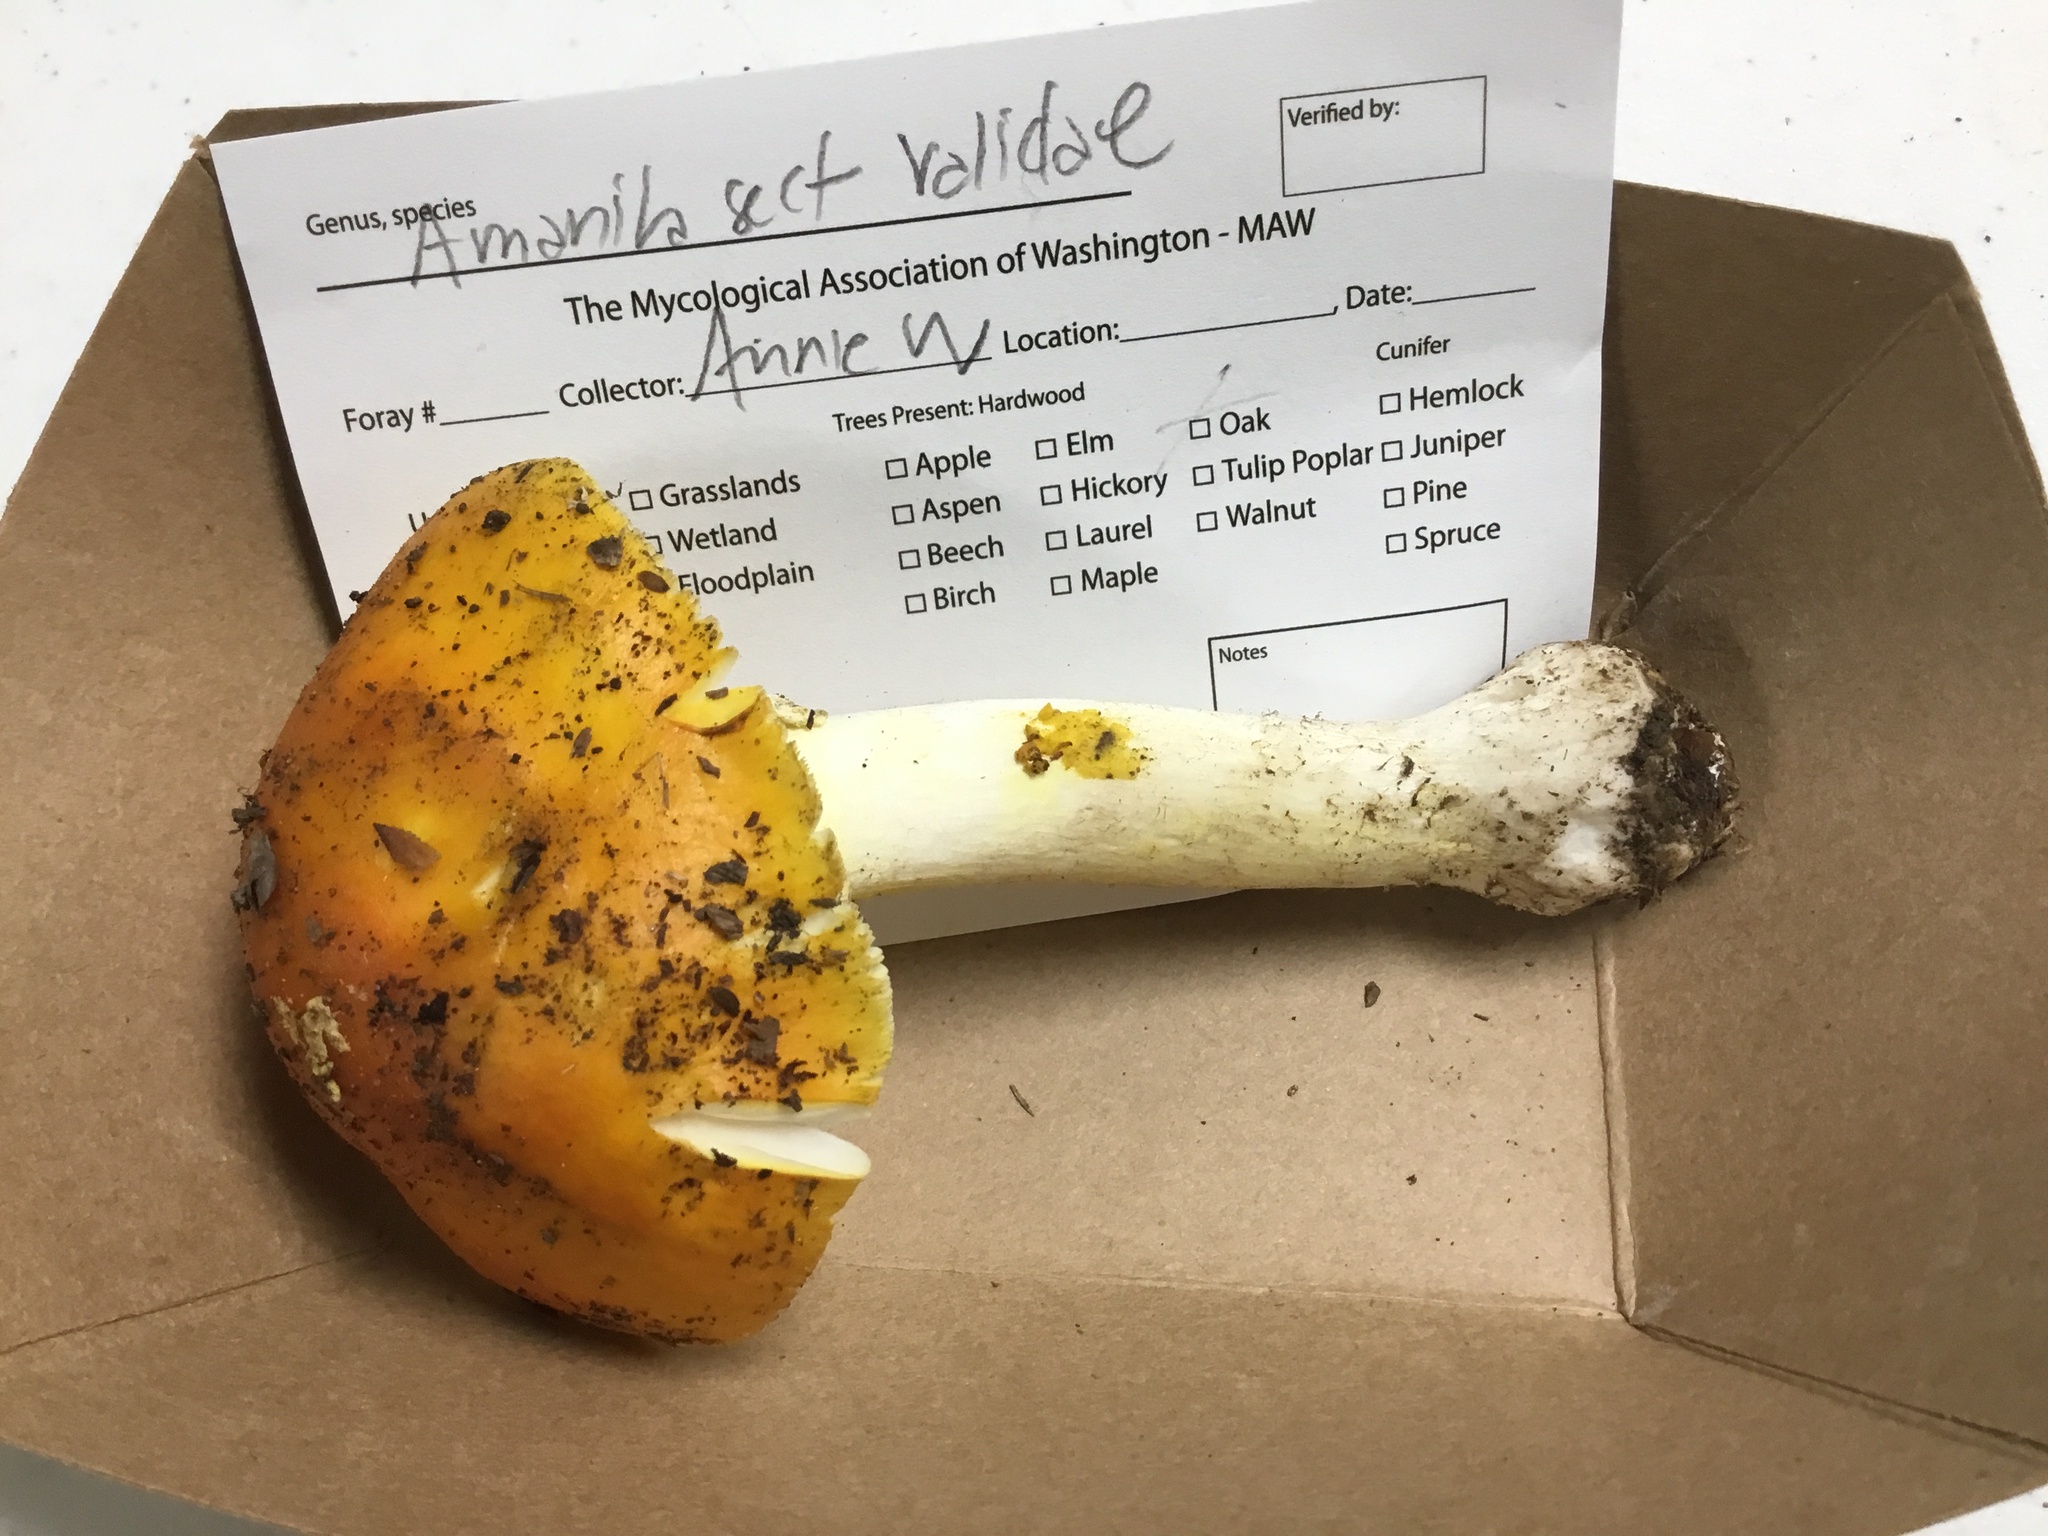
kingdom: Fungi
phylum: Basidiomycota
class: Agaricomycetes
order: Agaricales
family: Amanitaceae
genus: Amanita
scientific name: Amanita flavoconia
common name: Yellow patches
